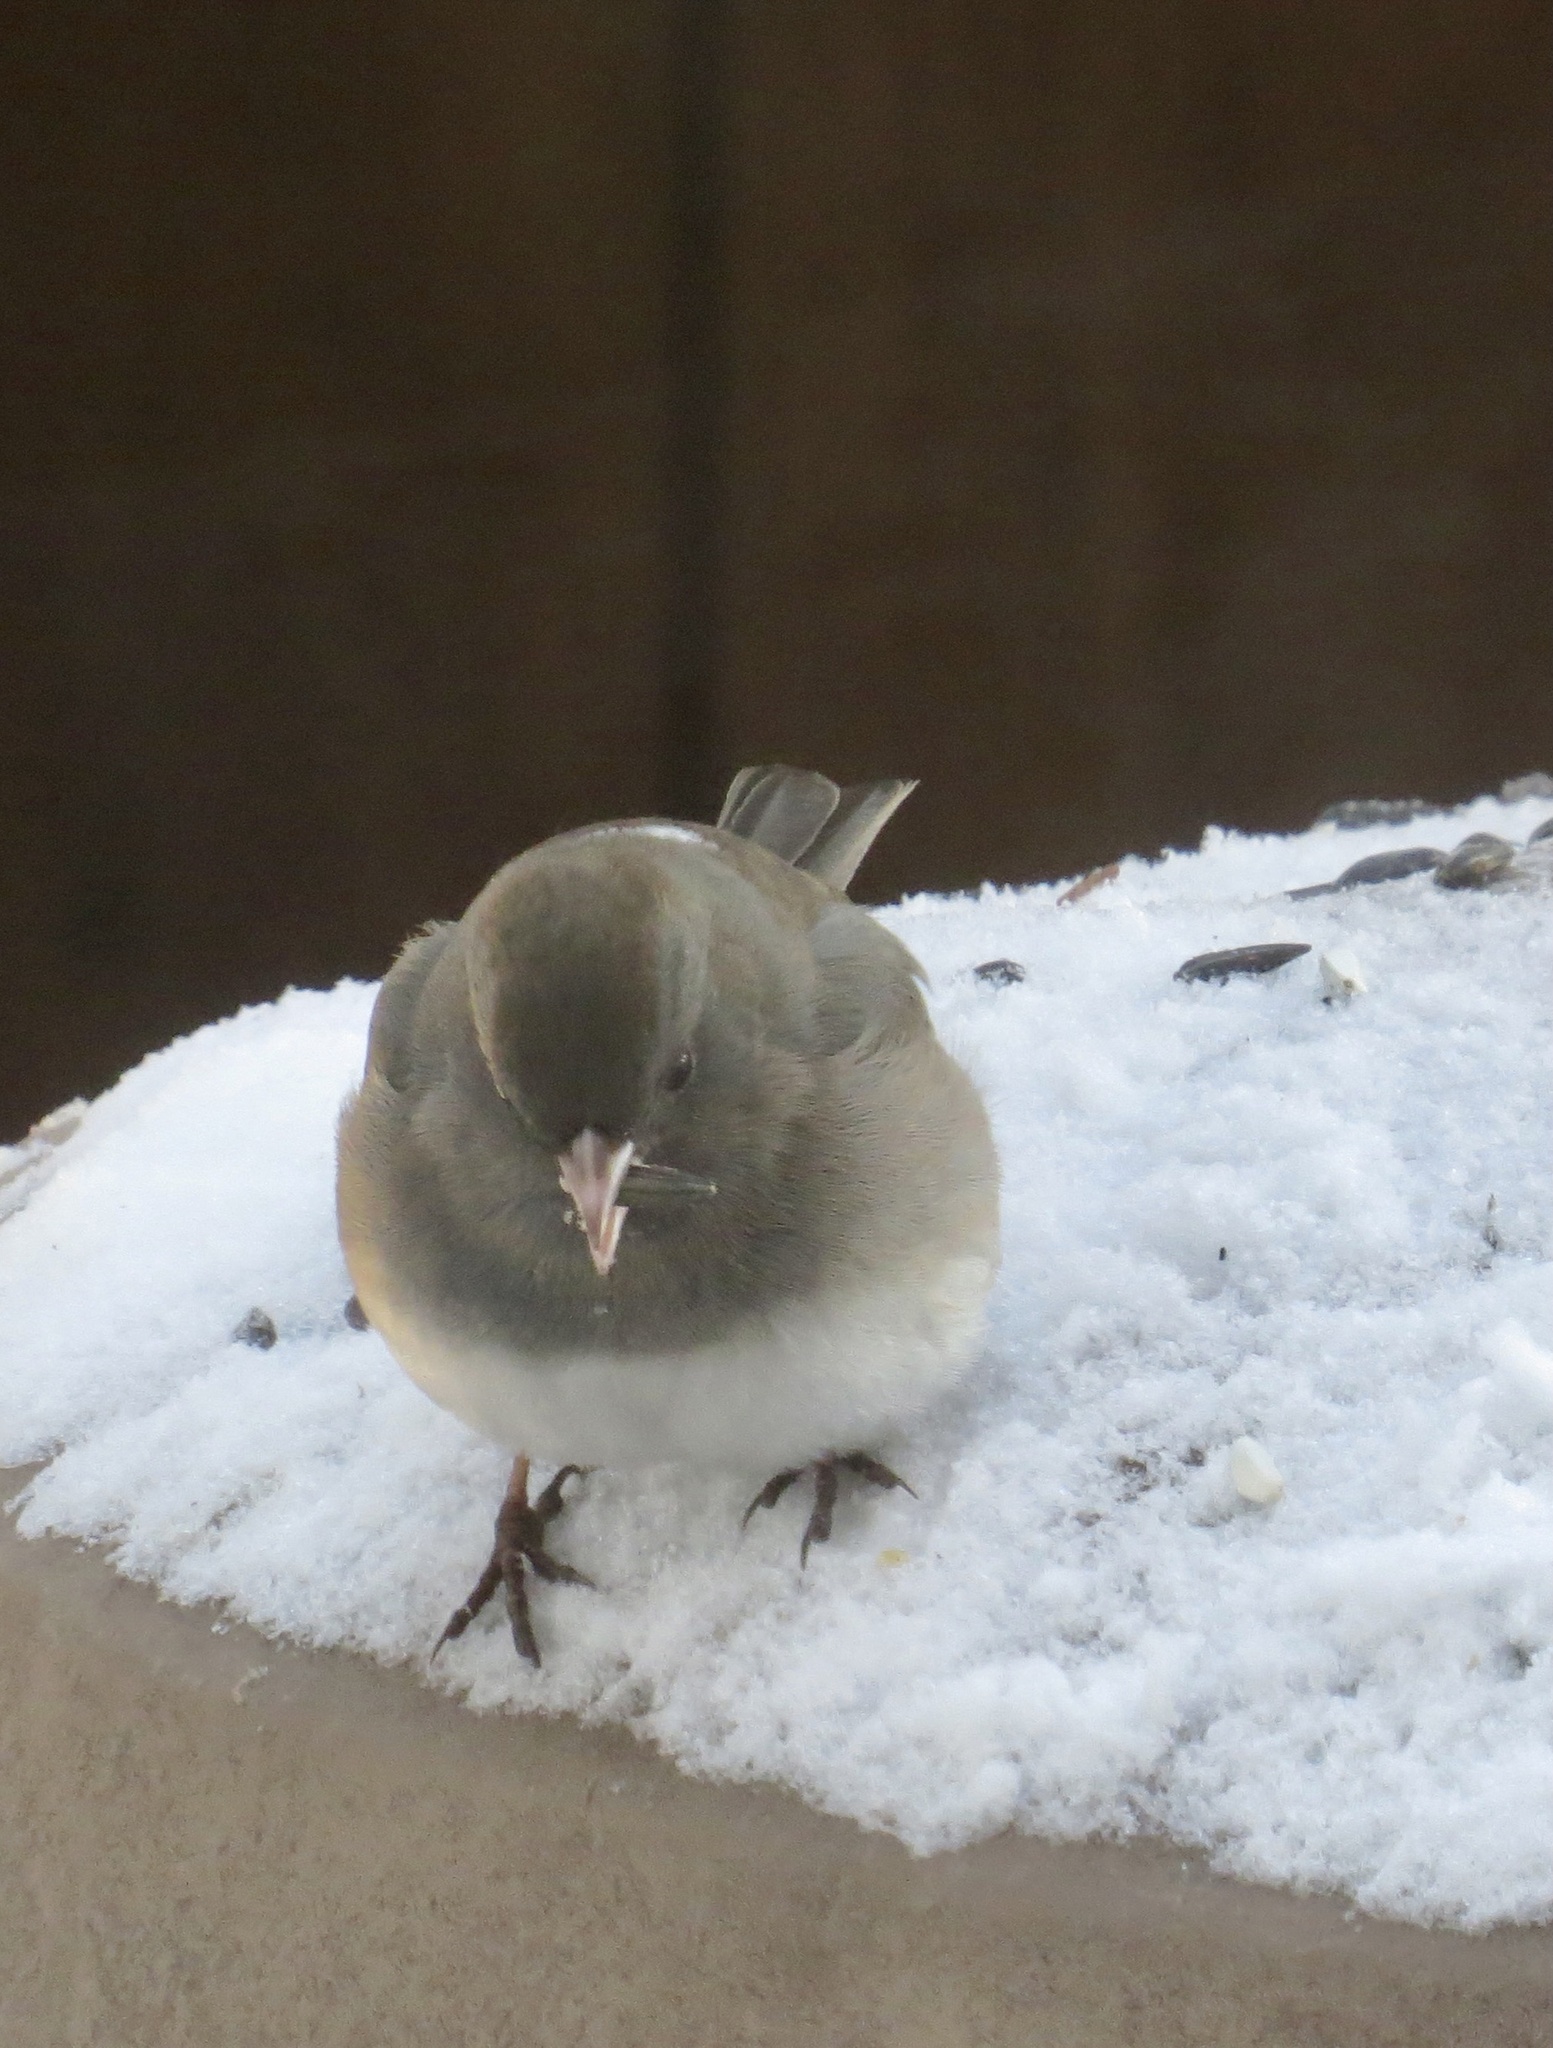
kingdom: Animalia
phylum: Chordata
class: Aves
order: Passeriformes
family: Passerellidae
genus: Junco
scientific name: Junco hyemalis
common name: Dark-eyed junco
